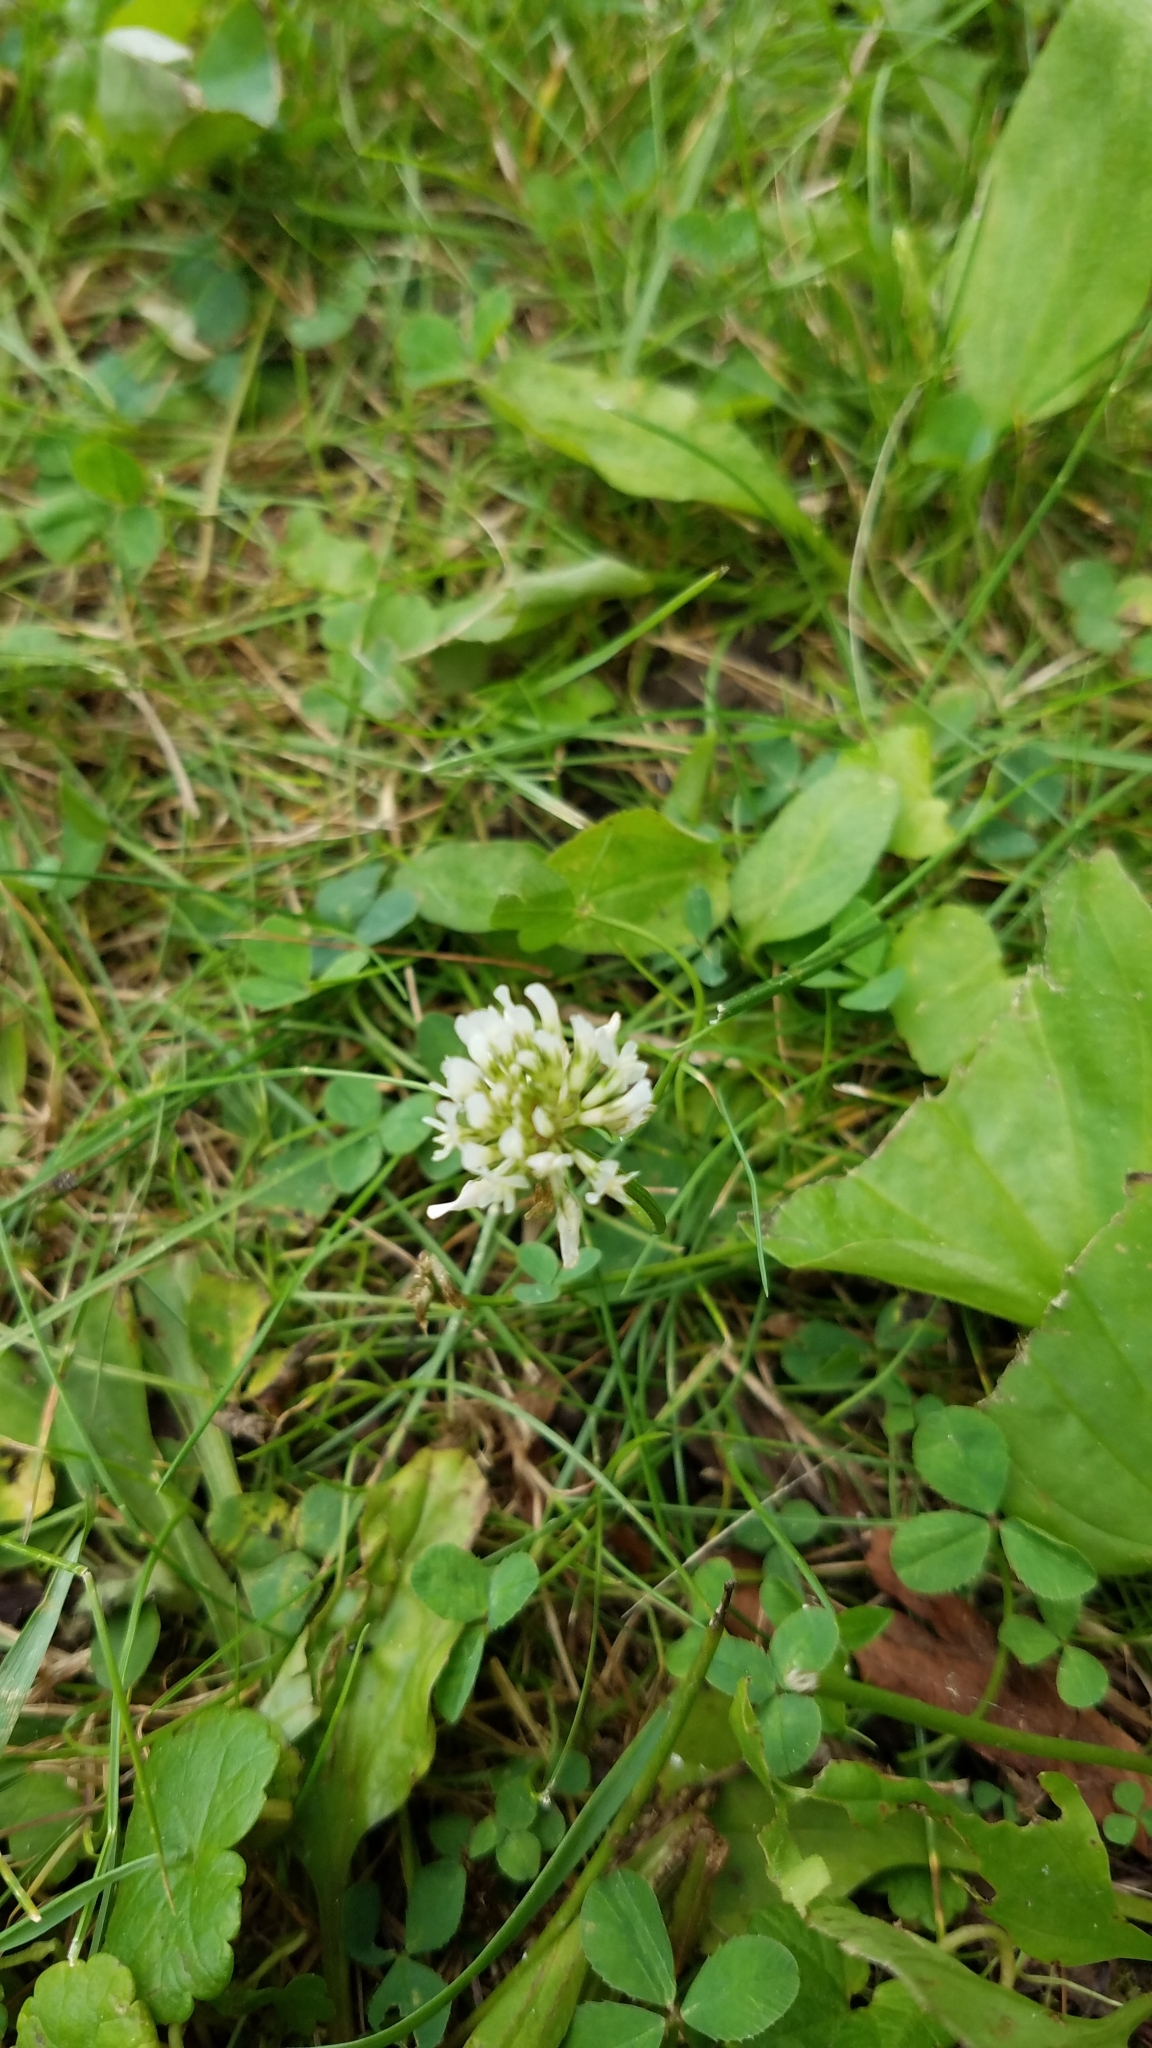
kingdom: Plantae
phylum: Tracheophyta
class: Magnoliopsida
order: Fabales
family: Fabaceae
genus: Trifolium
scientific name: Trifolium repens
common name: White clover
